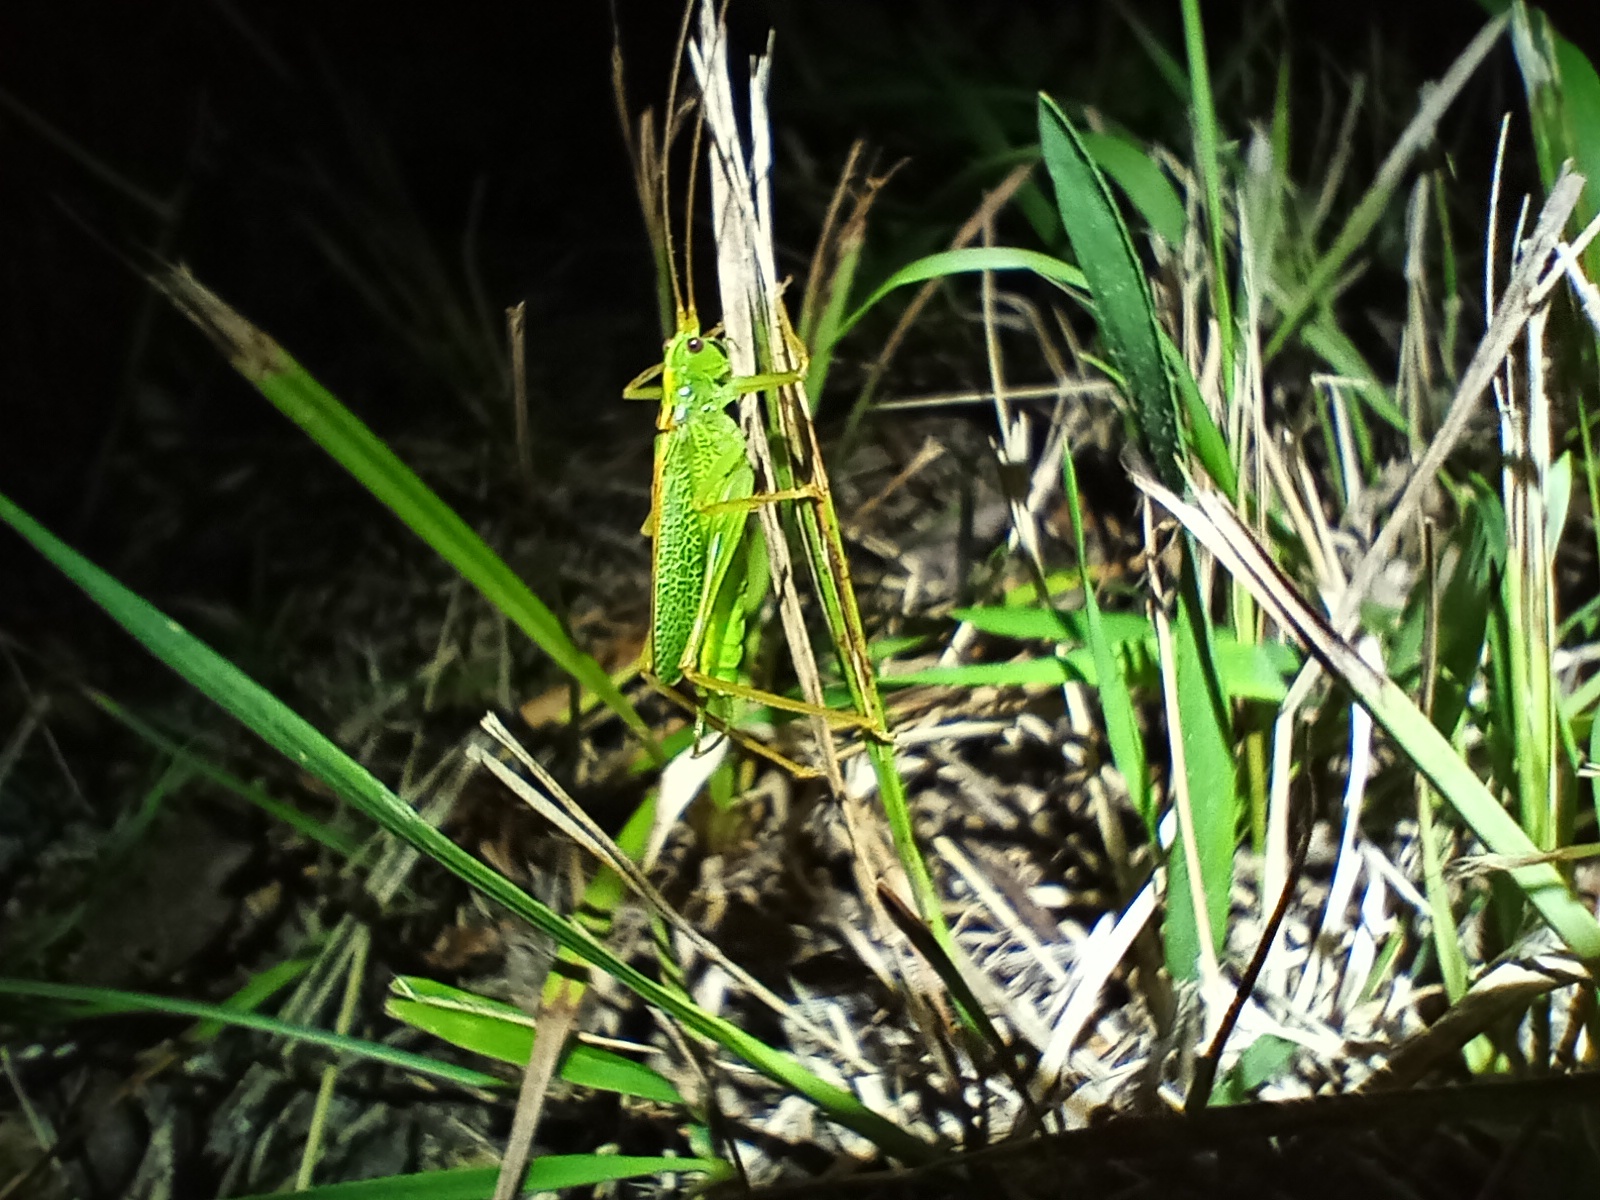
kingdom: Animalia
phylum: Arthropoda
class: Insecta
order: Orthoptera
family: Tettigoniidae
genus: Meconema
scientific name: Meconema thalassinum
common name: Oak bush-cricket
